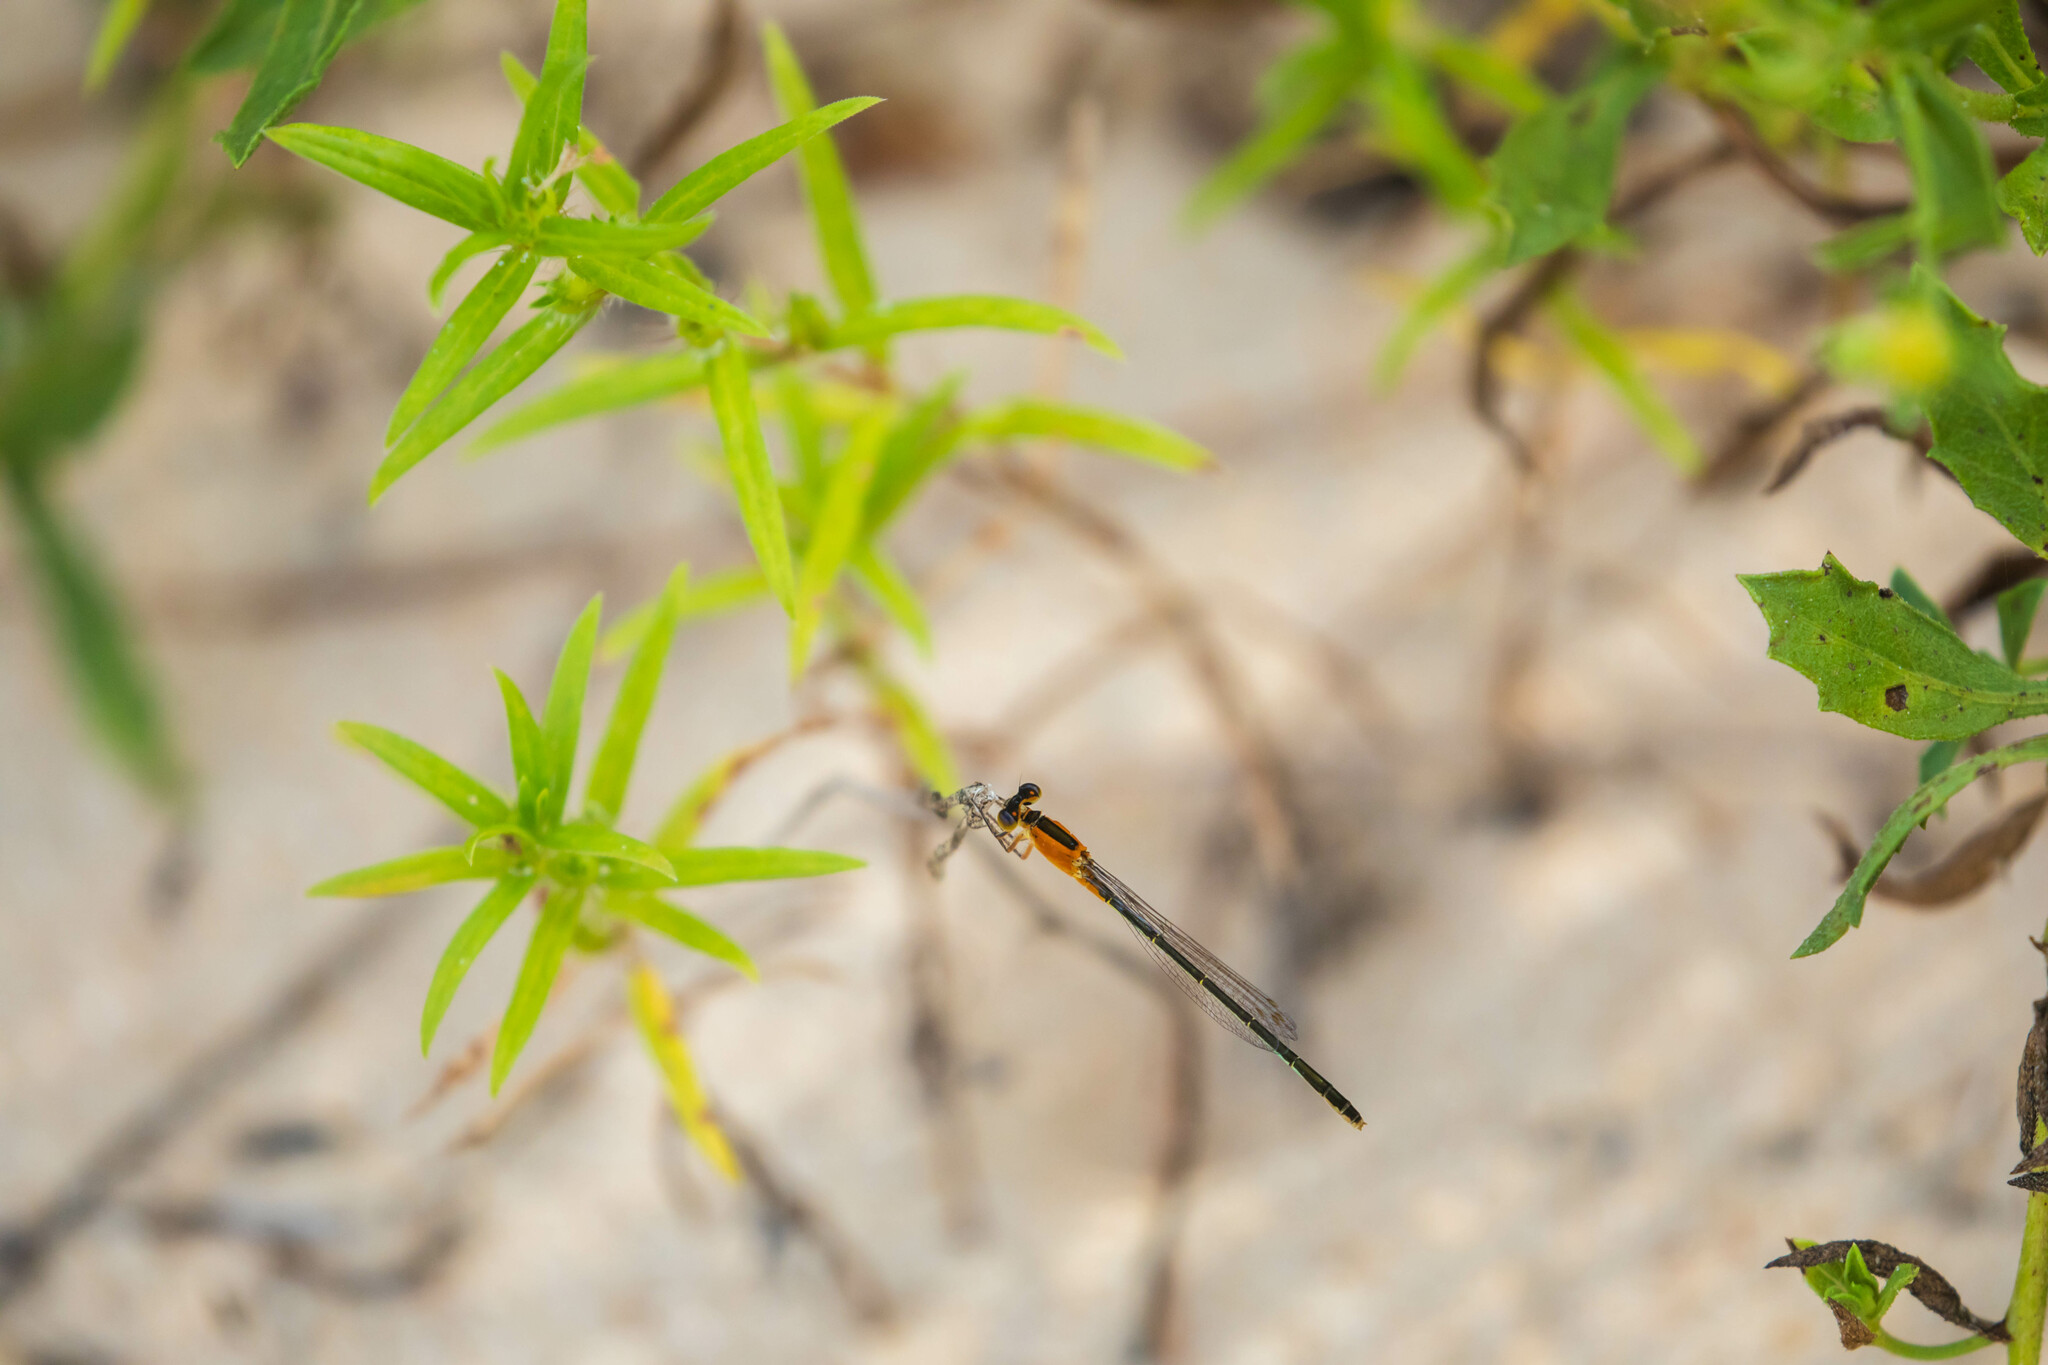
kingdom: Animalia
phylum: Arthropoda
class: Insecta
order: Odonata
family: Coenagrionidae
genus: Ischnura
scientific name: Ischnura ramburii
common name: Rambur's forktail
